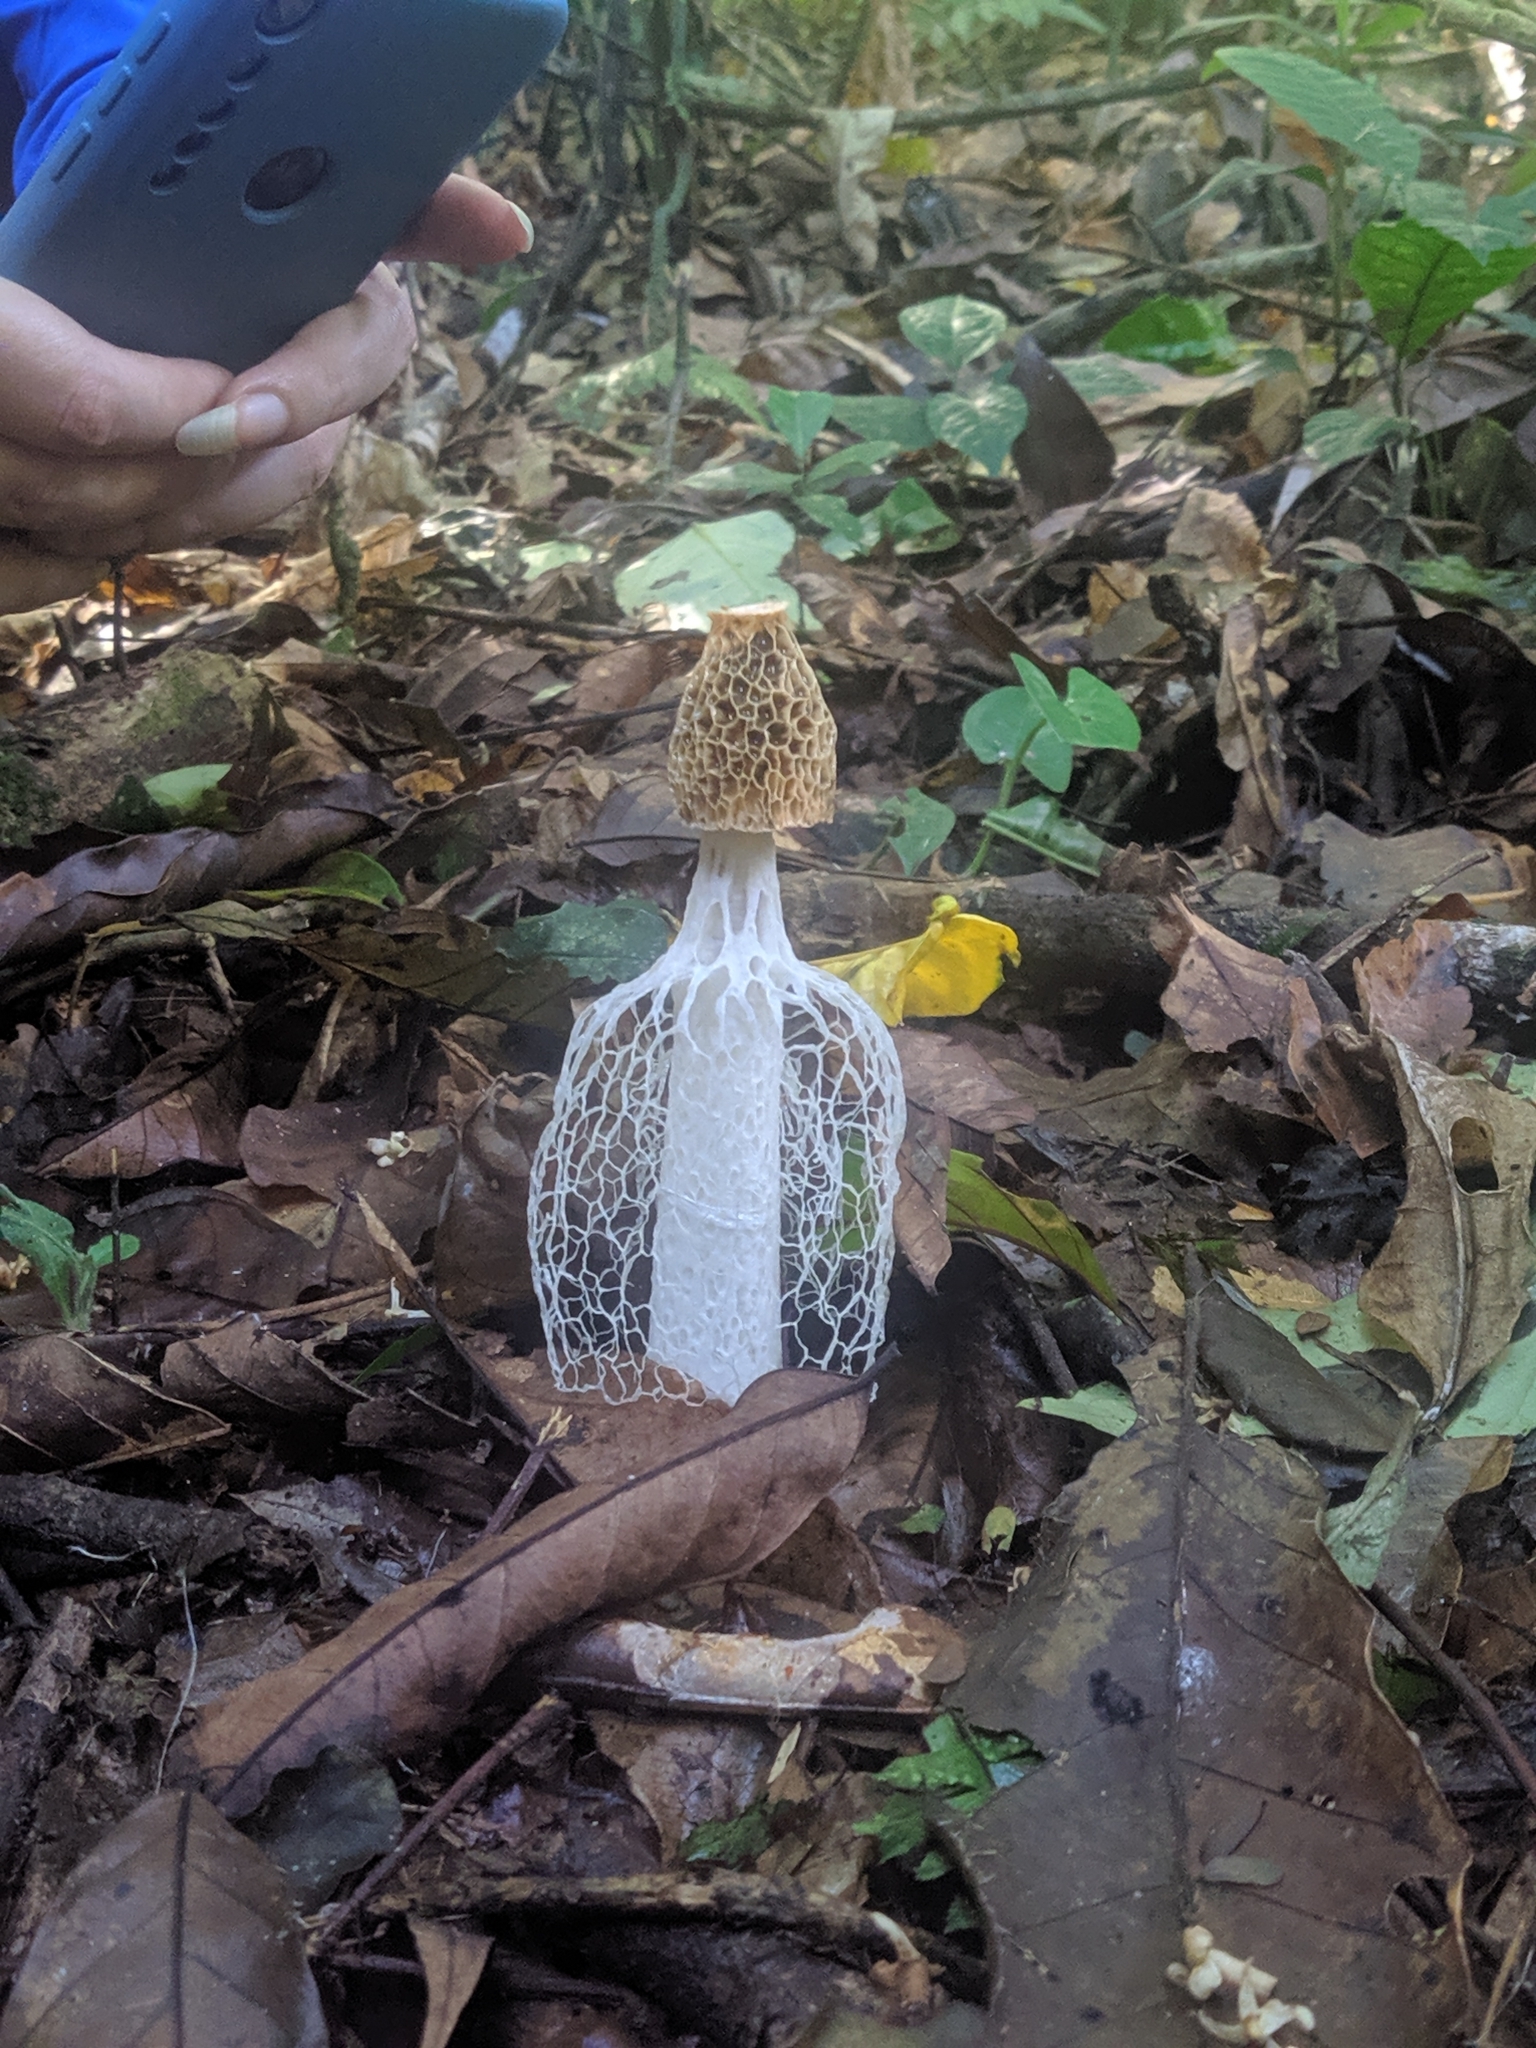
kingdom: Fungi
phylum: Basidiomycota
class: Agaricomycetes
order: Phallales
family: Phallaceae
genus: Phallus
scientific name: Phallus indusiatus
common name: Bridal veil stinkhorn
